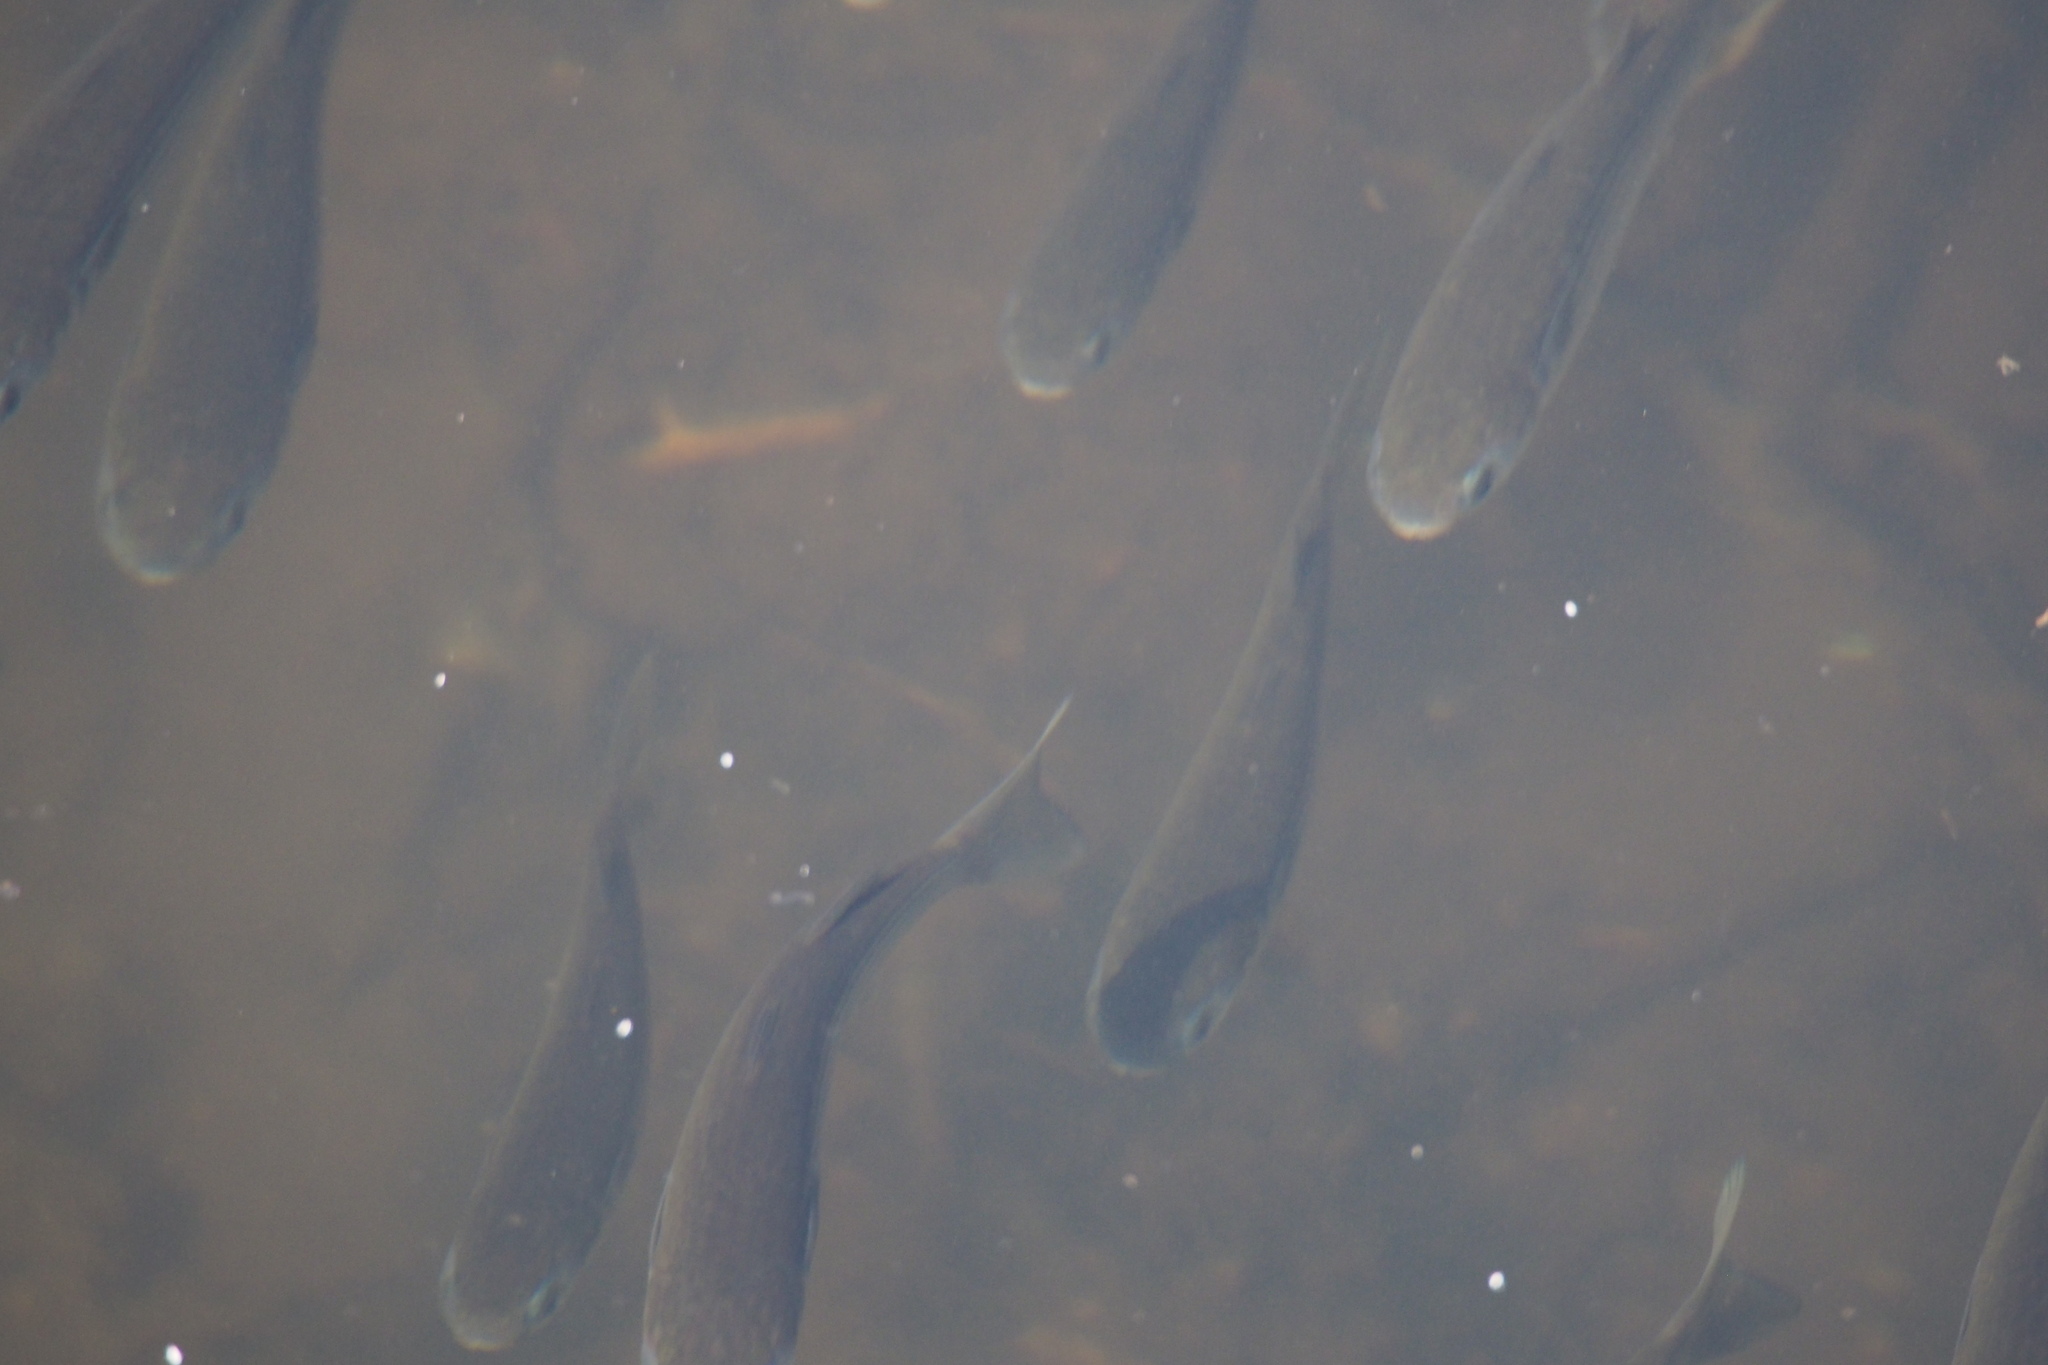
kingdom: Animalia
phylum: Chordata
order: Mugiliformes
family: Mugilidae
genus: Mugil
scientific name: Mugil cephalus
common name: Grey mullet
